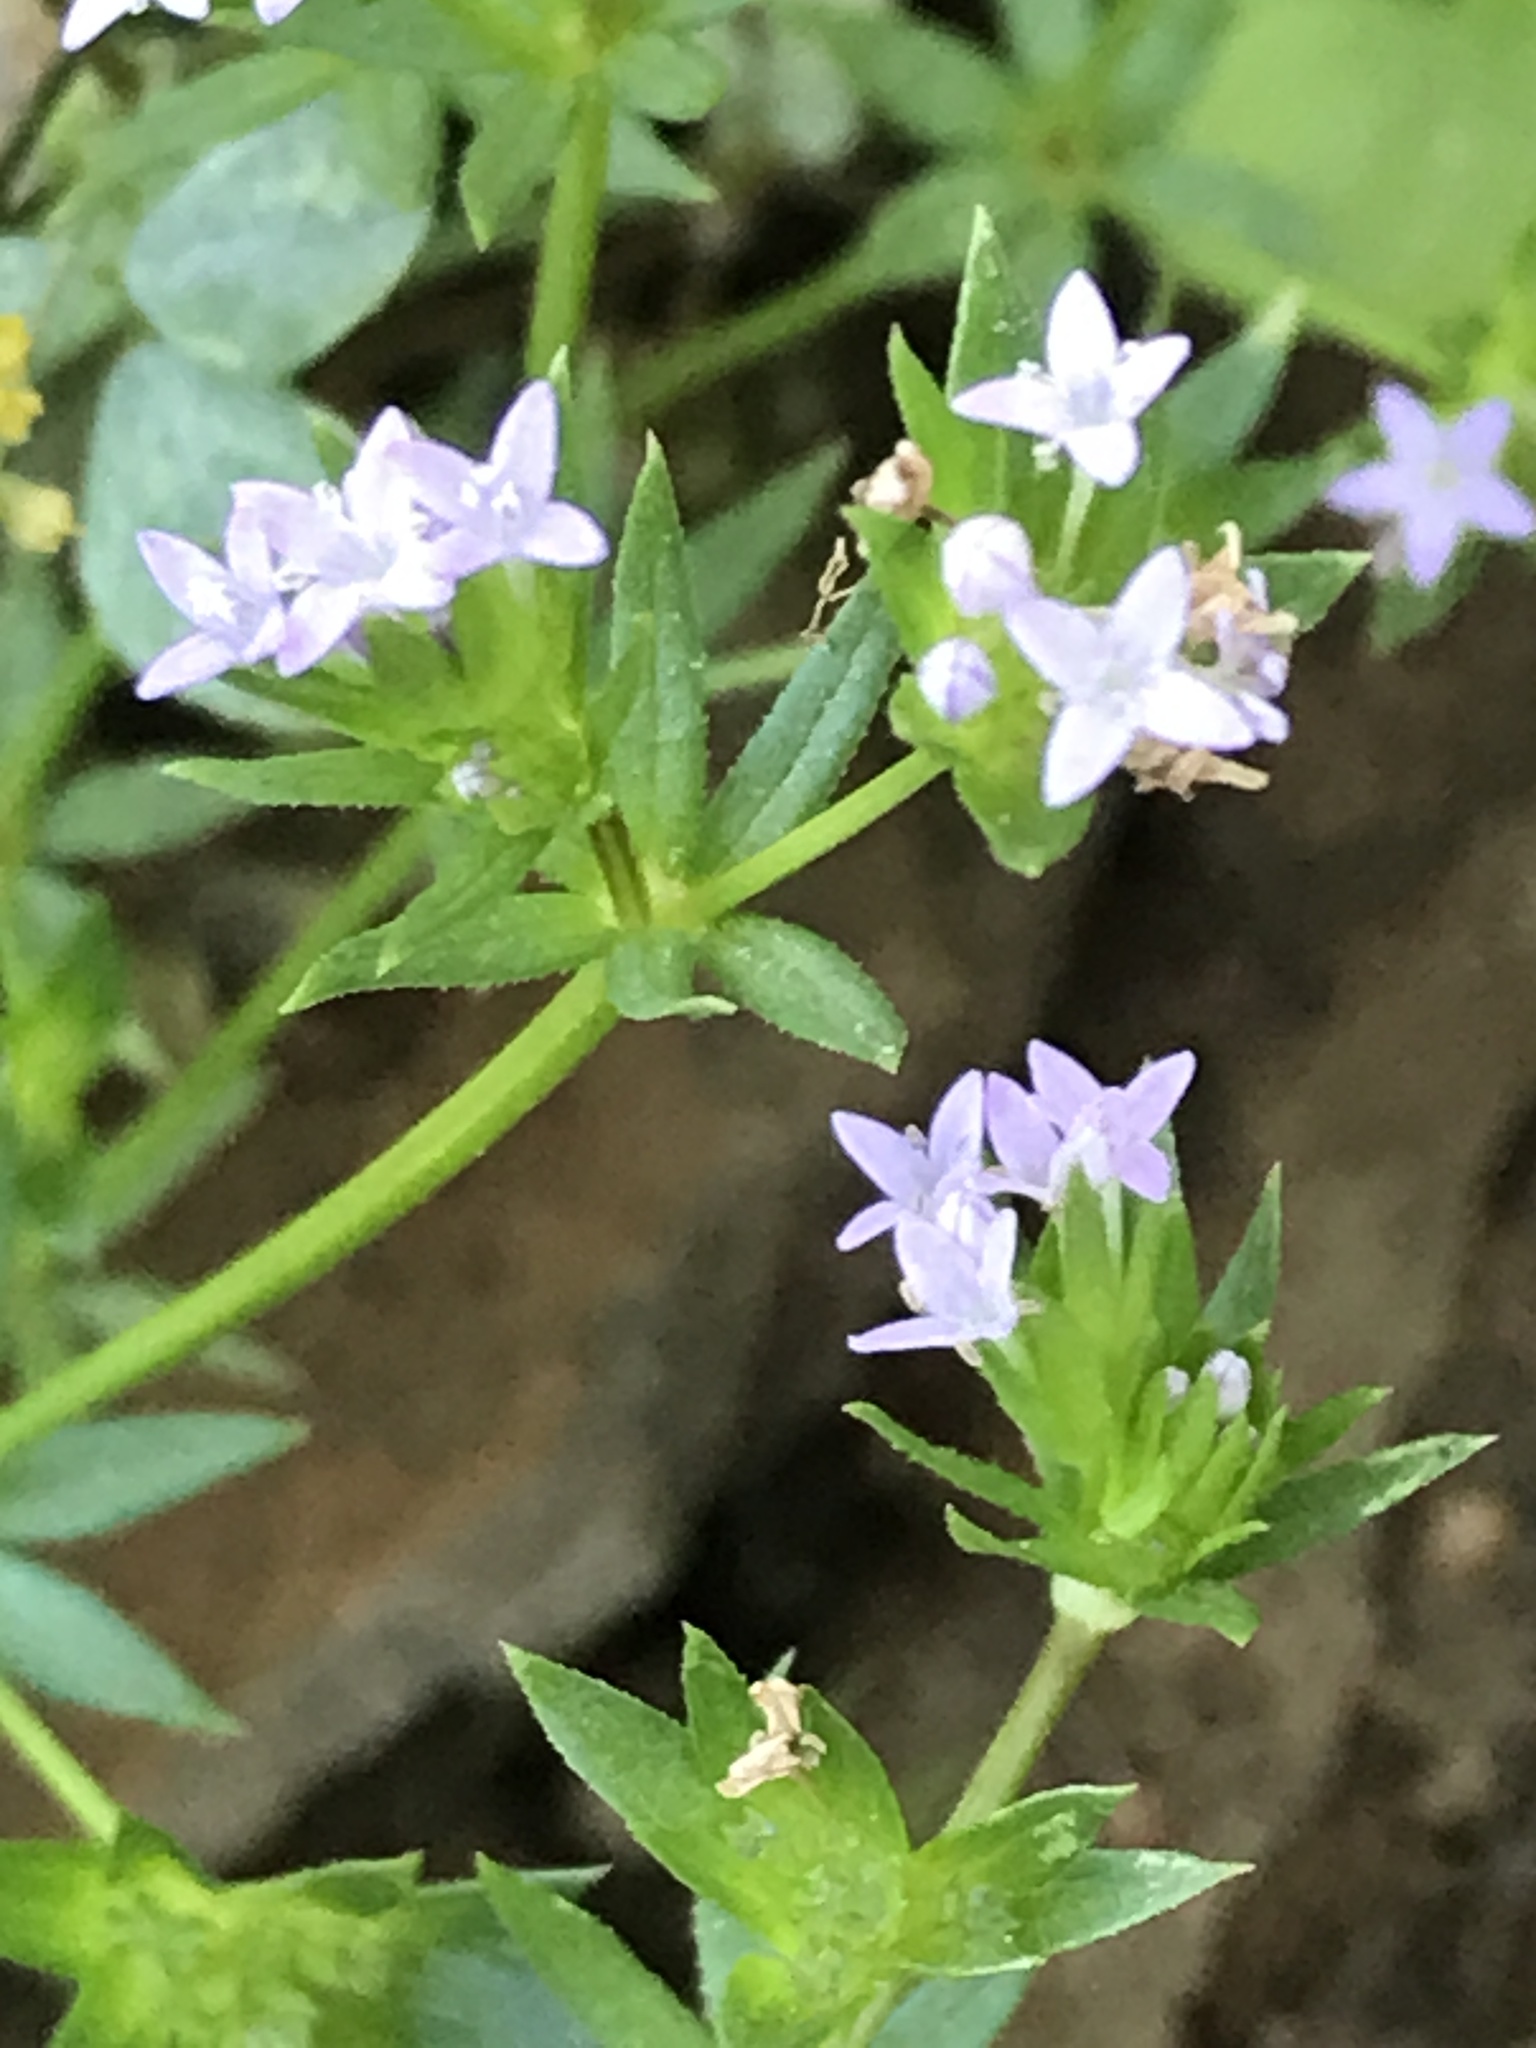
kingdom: Plantae
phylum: Tracheophyta
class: Magnoliopsida
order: Gentianales
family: Rubiaceae
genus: Sherardia
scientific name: Sherardia arvensis
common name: Field madder
